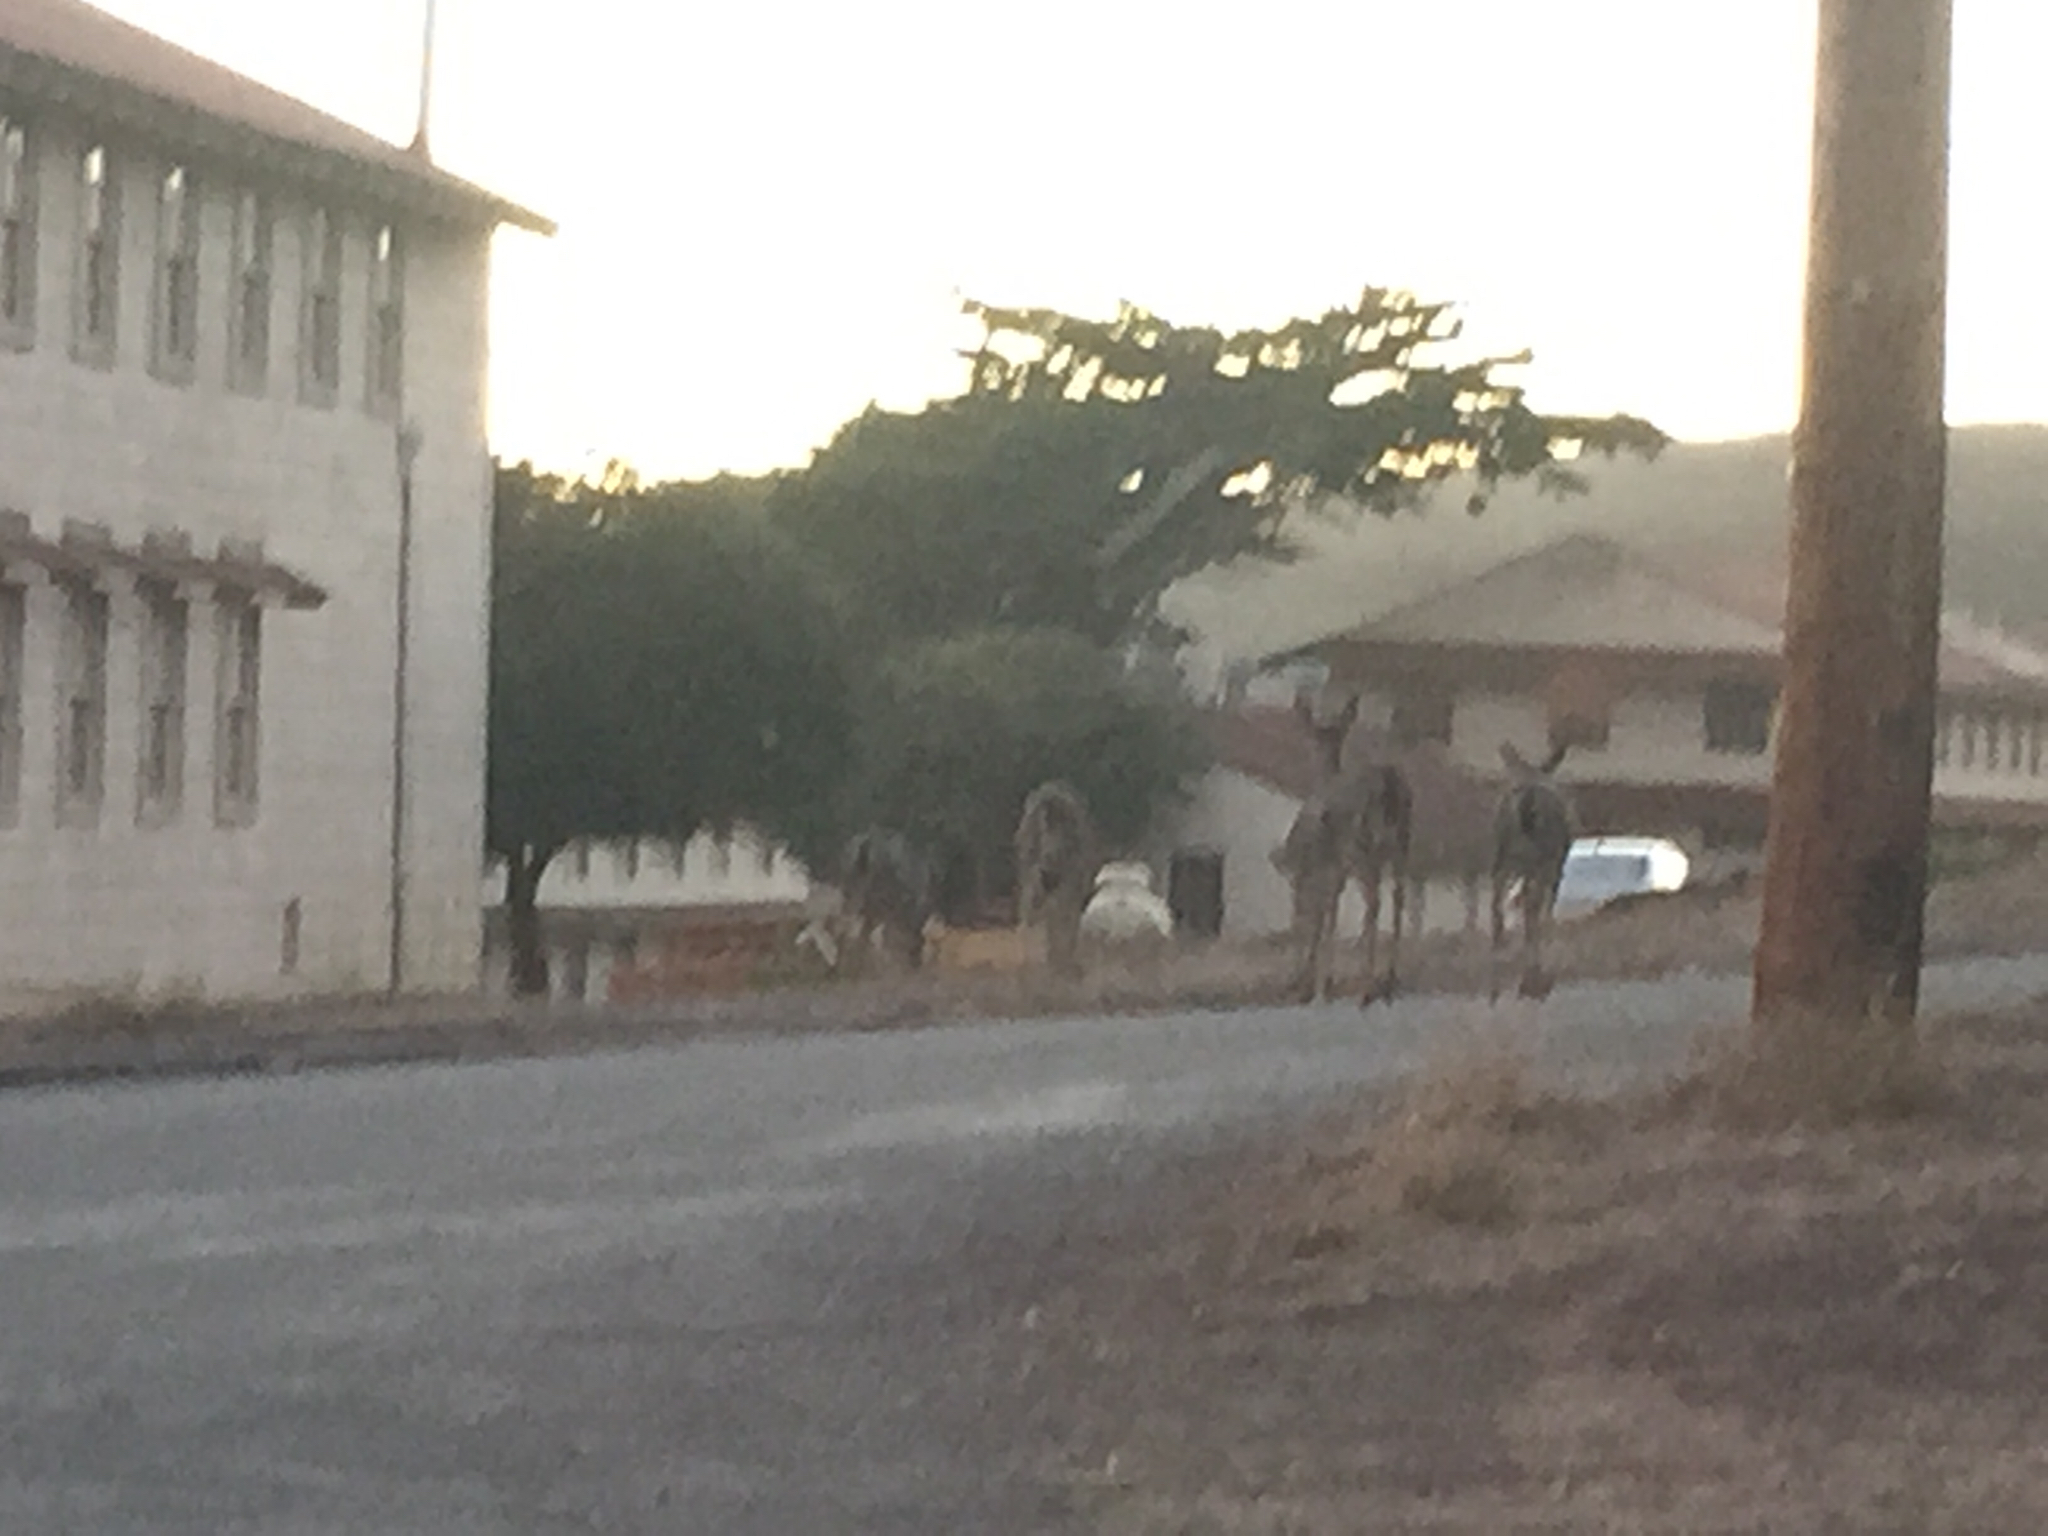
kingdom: Animalia
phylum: Chordata
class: Mammalia
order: Artiodactyla
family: Cervidae
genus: Odocoileus
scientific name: Odocoileus hemionus
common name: Mule deer
